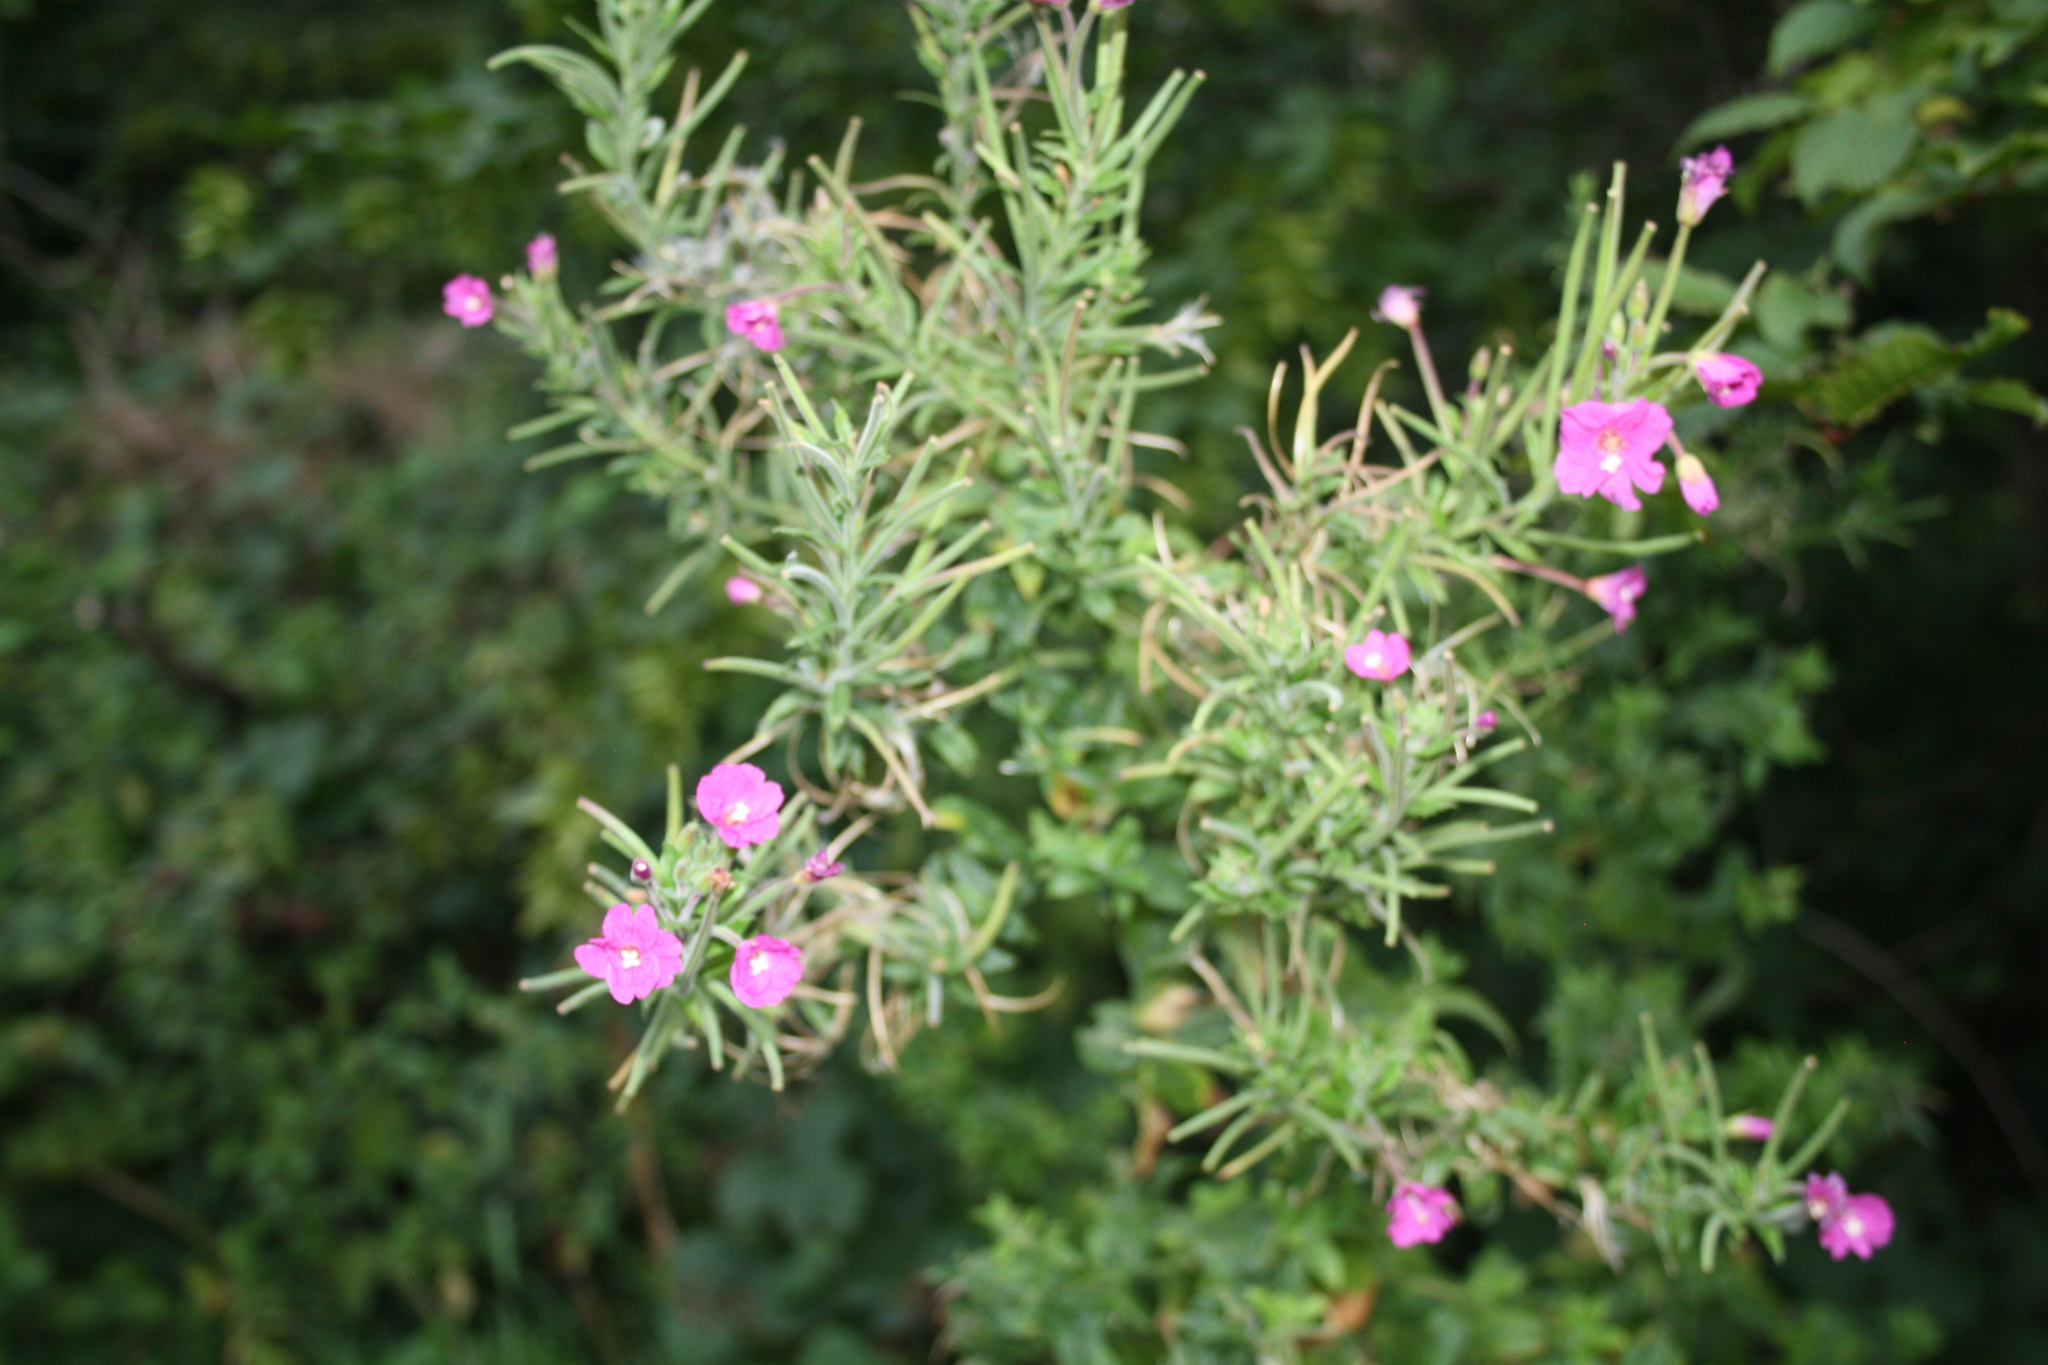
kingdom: Plantae
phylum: Tracheophyta
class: Magnoliopsida
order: Myrtales
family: Onagraceae
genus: Epilobium
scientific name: Epilobium hirsutum
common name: Great willowherb
